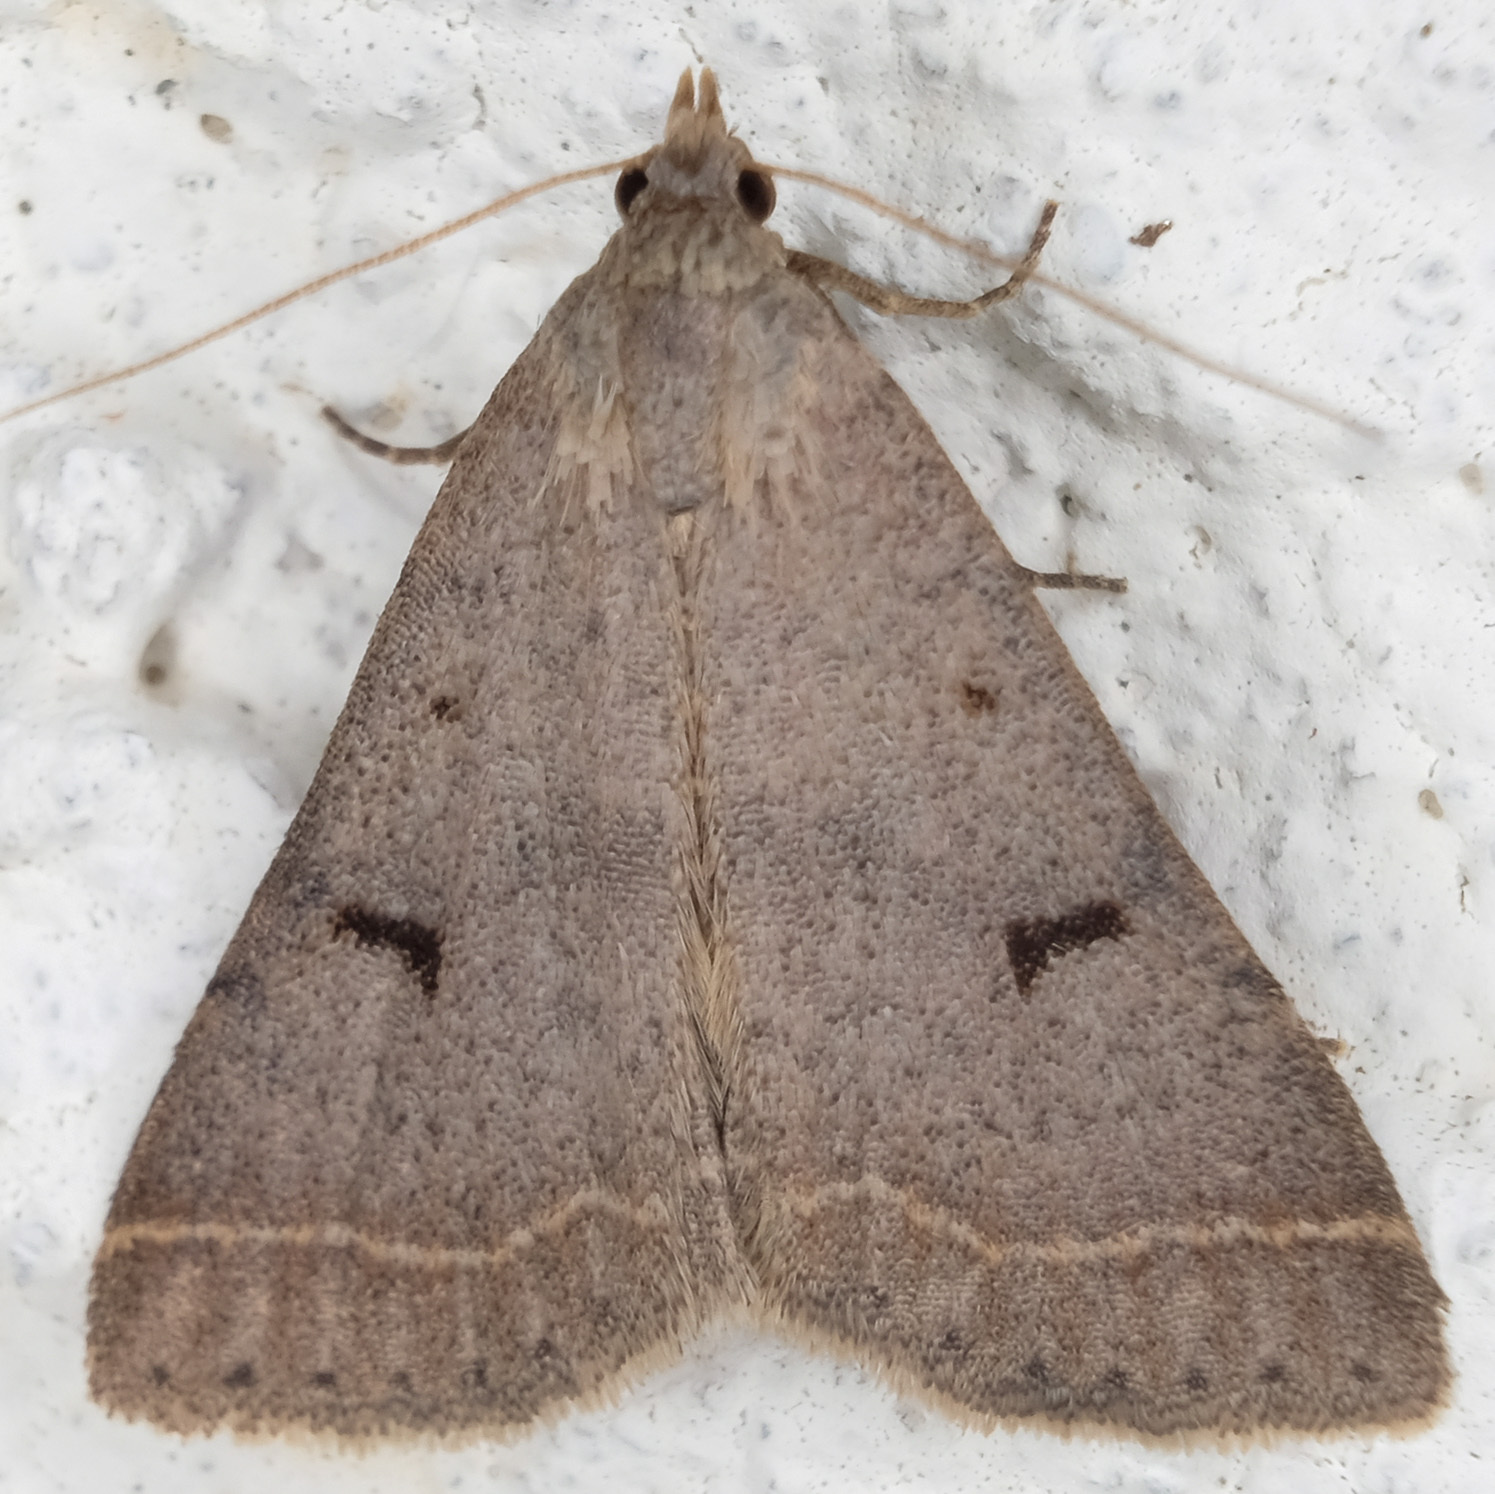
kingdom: Animalia
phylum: Arthropoda
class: Insecta
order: Lepidoptera
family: Erebidae
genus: Bleptina
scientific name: Bleptina caradrinalis
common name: Bent-winged owlet
